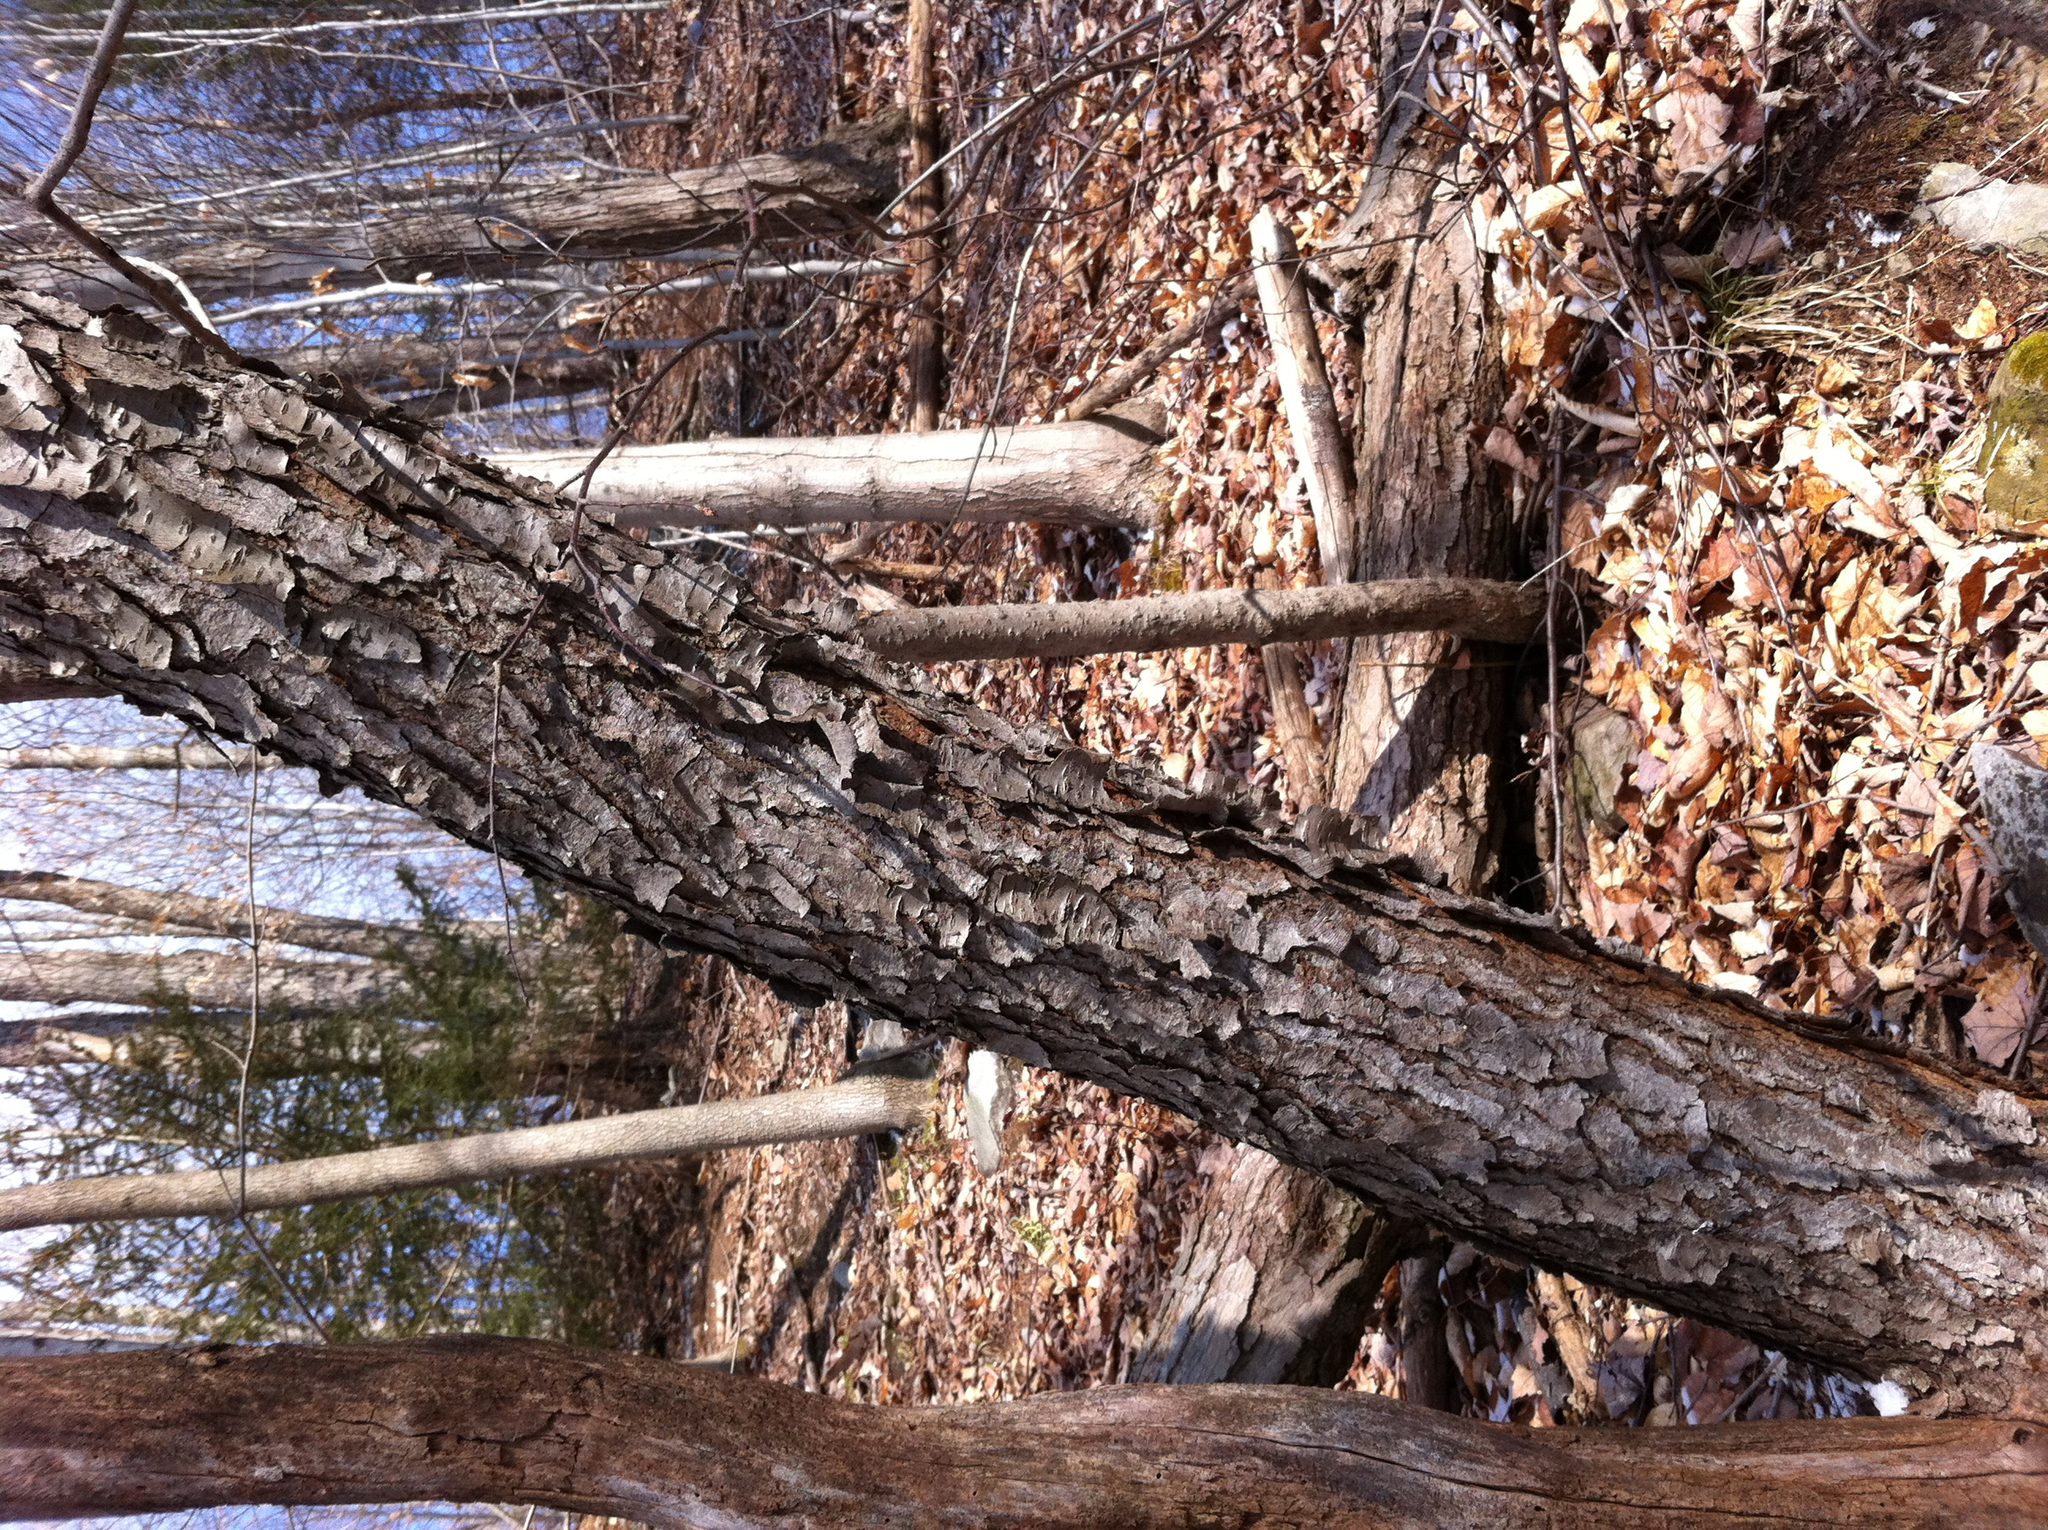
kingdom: Plantae
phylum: Tracheophyta
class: Magnoliopsida
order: Rosales
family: Rosaceae
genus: Prunus
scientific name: Prunus serotina
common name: Black cherry
